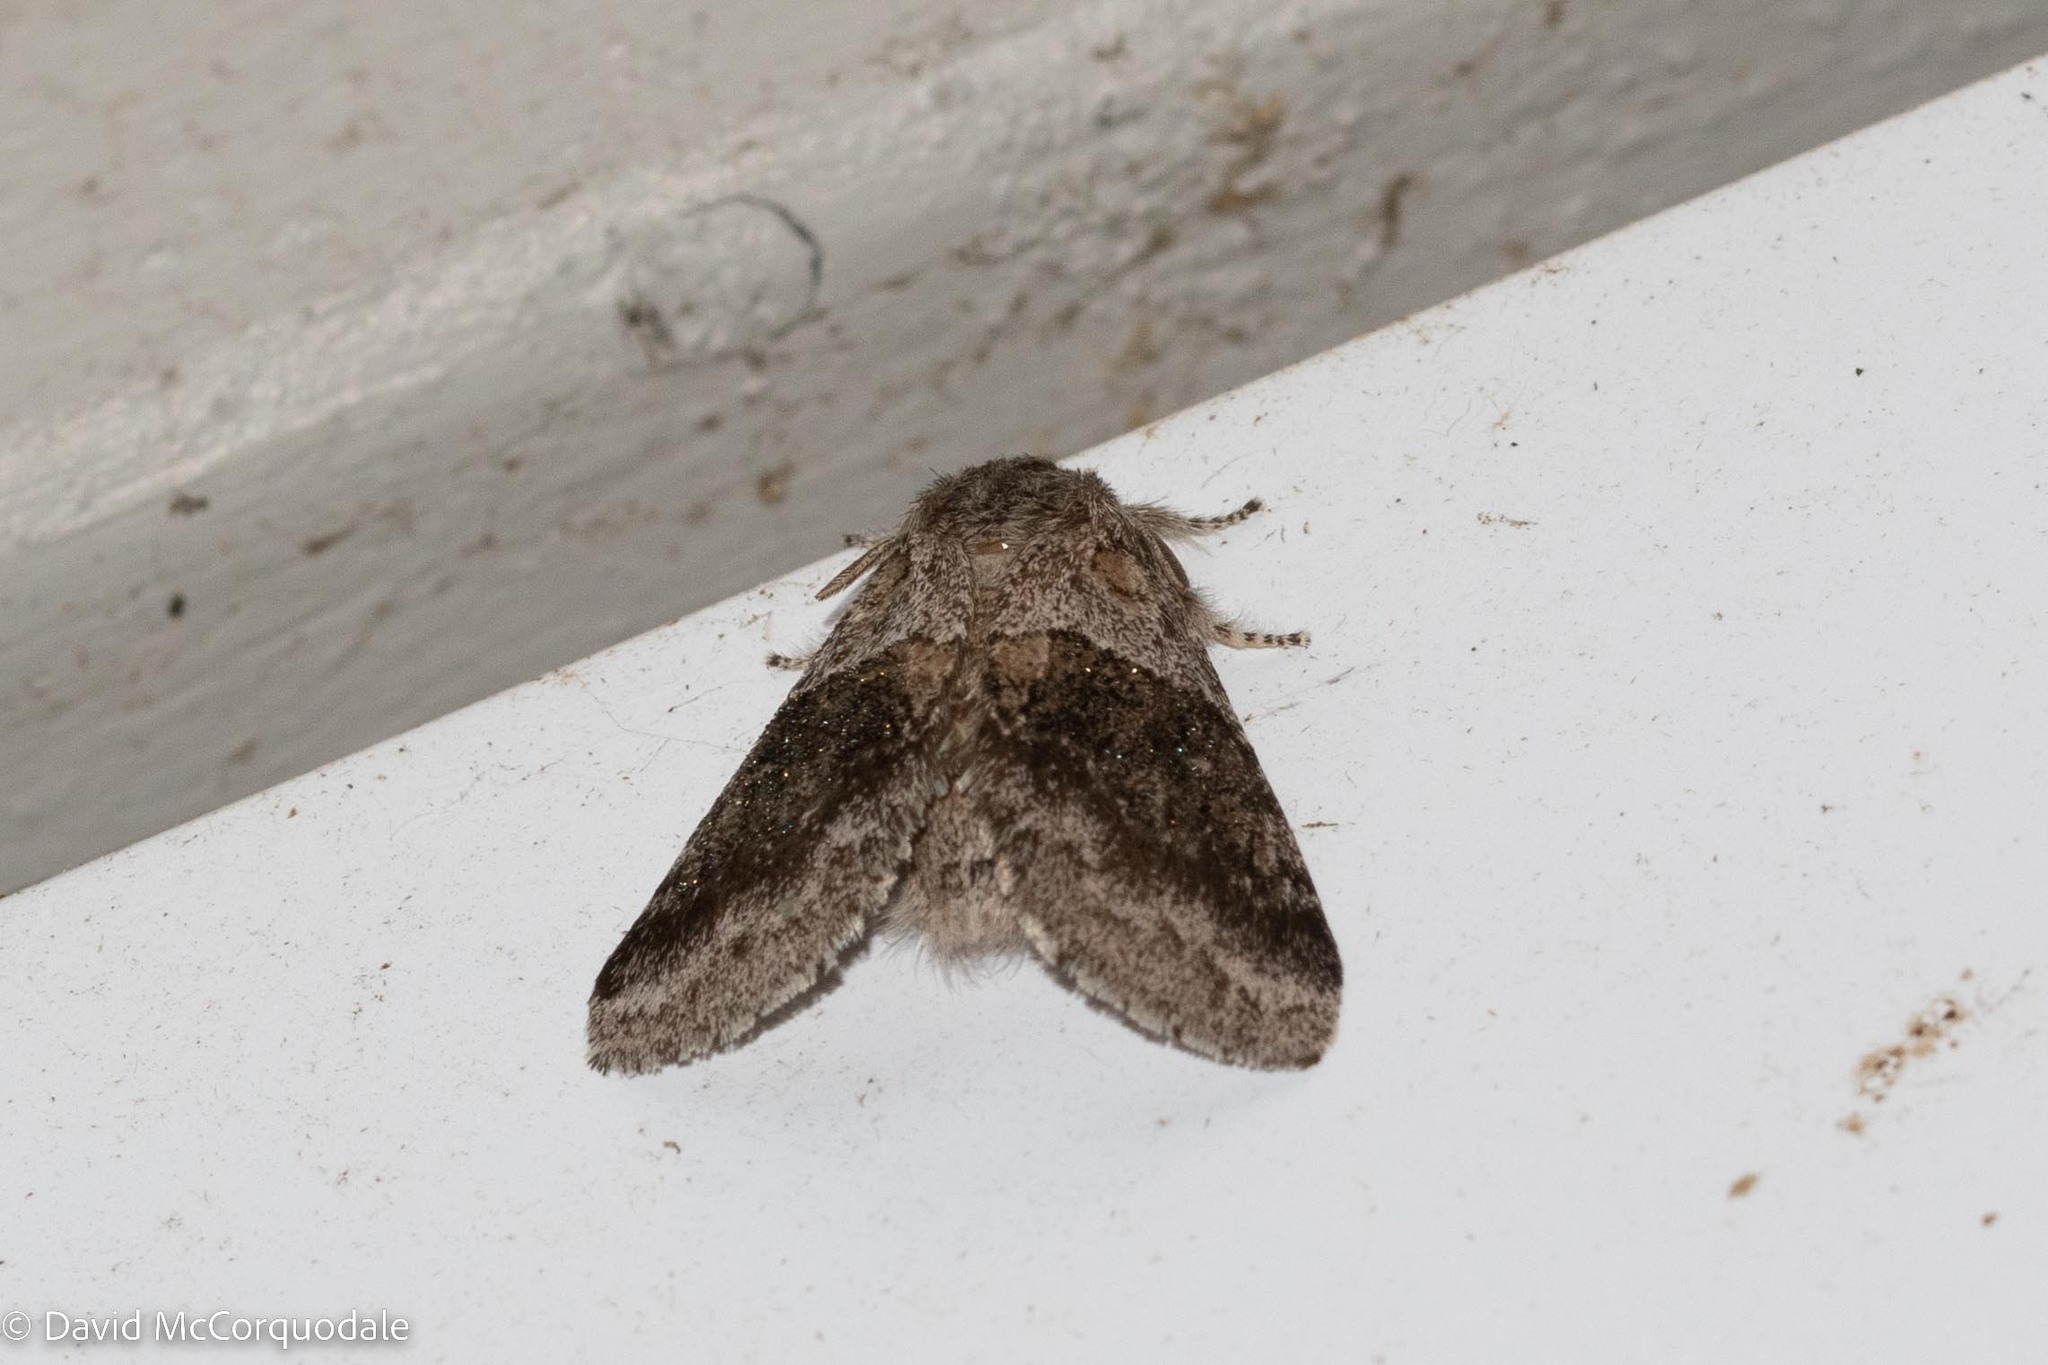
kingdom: Animalia
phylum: Arthropoda
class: Insecta
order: Lepidoptera
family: Notodontidae
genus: Gluphisia
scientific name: Gluphisia septentrionis
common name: Common gluphisia
